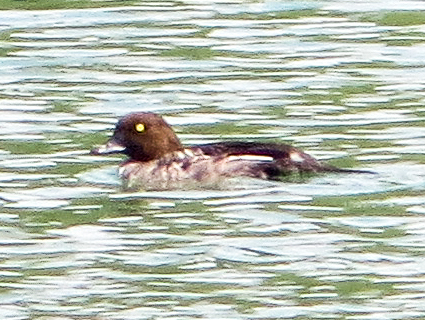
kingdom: Animalia
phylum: Chordata
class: Aves
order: Anseriformes
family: Anatidae
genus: Bucephala
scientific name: Bucephala clangula
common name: Common goldeneye
